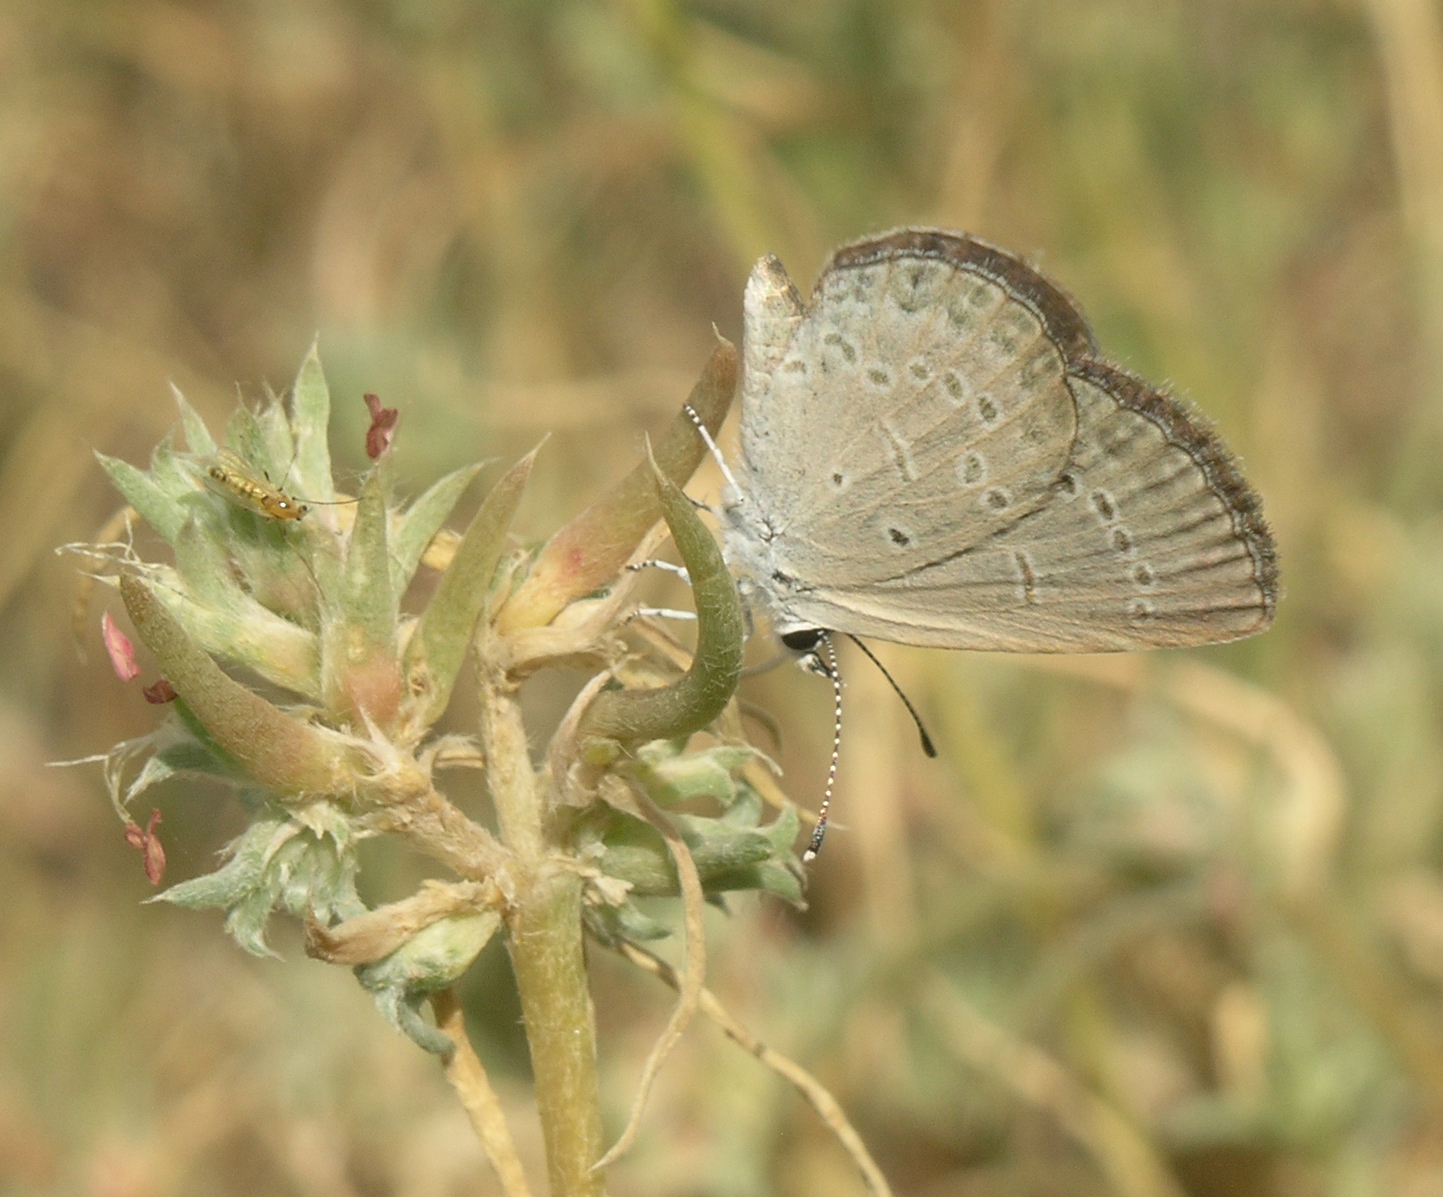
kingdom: Plantae
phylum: Tracheophyta
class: Magnoliopsida
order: Caryophyllales
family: Amaranthaceae
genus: Pyankovia
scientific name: Pyankovia brachiata
